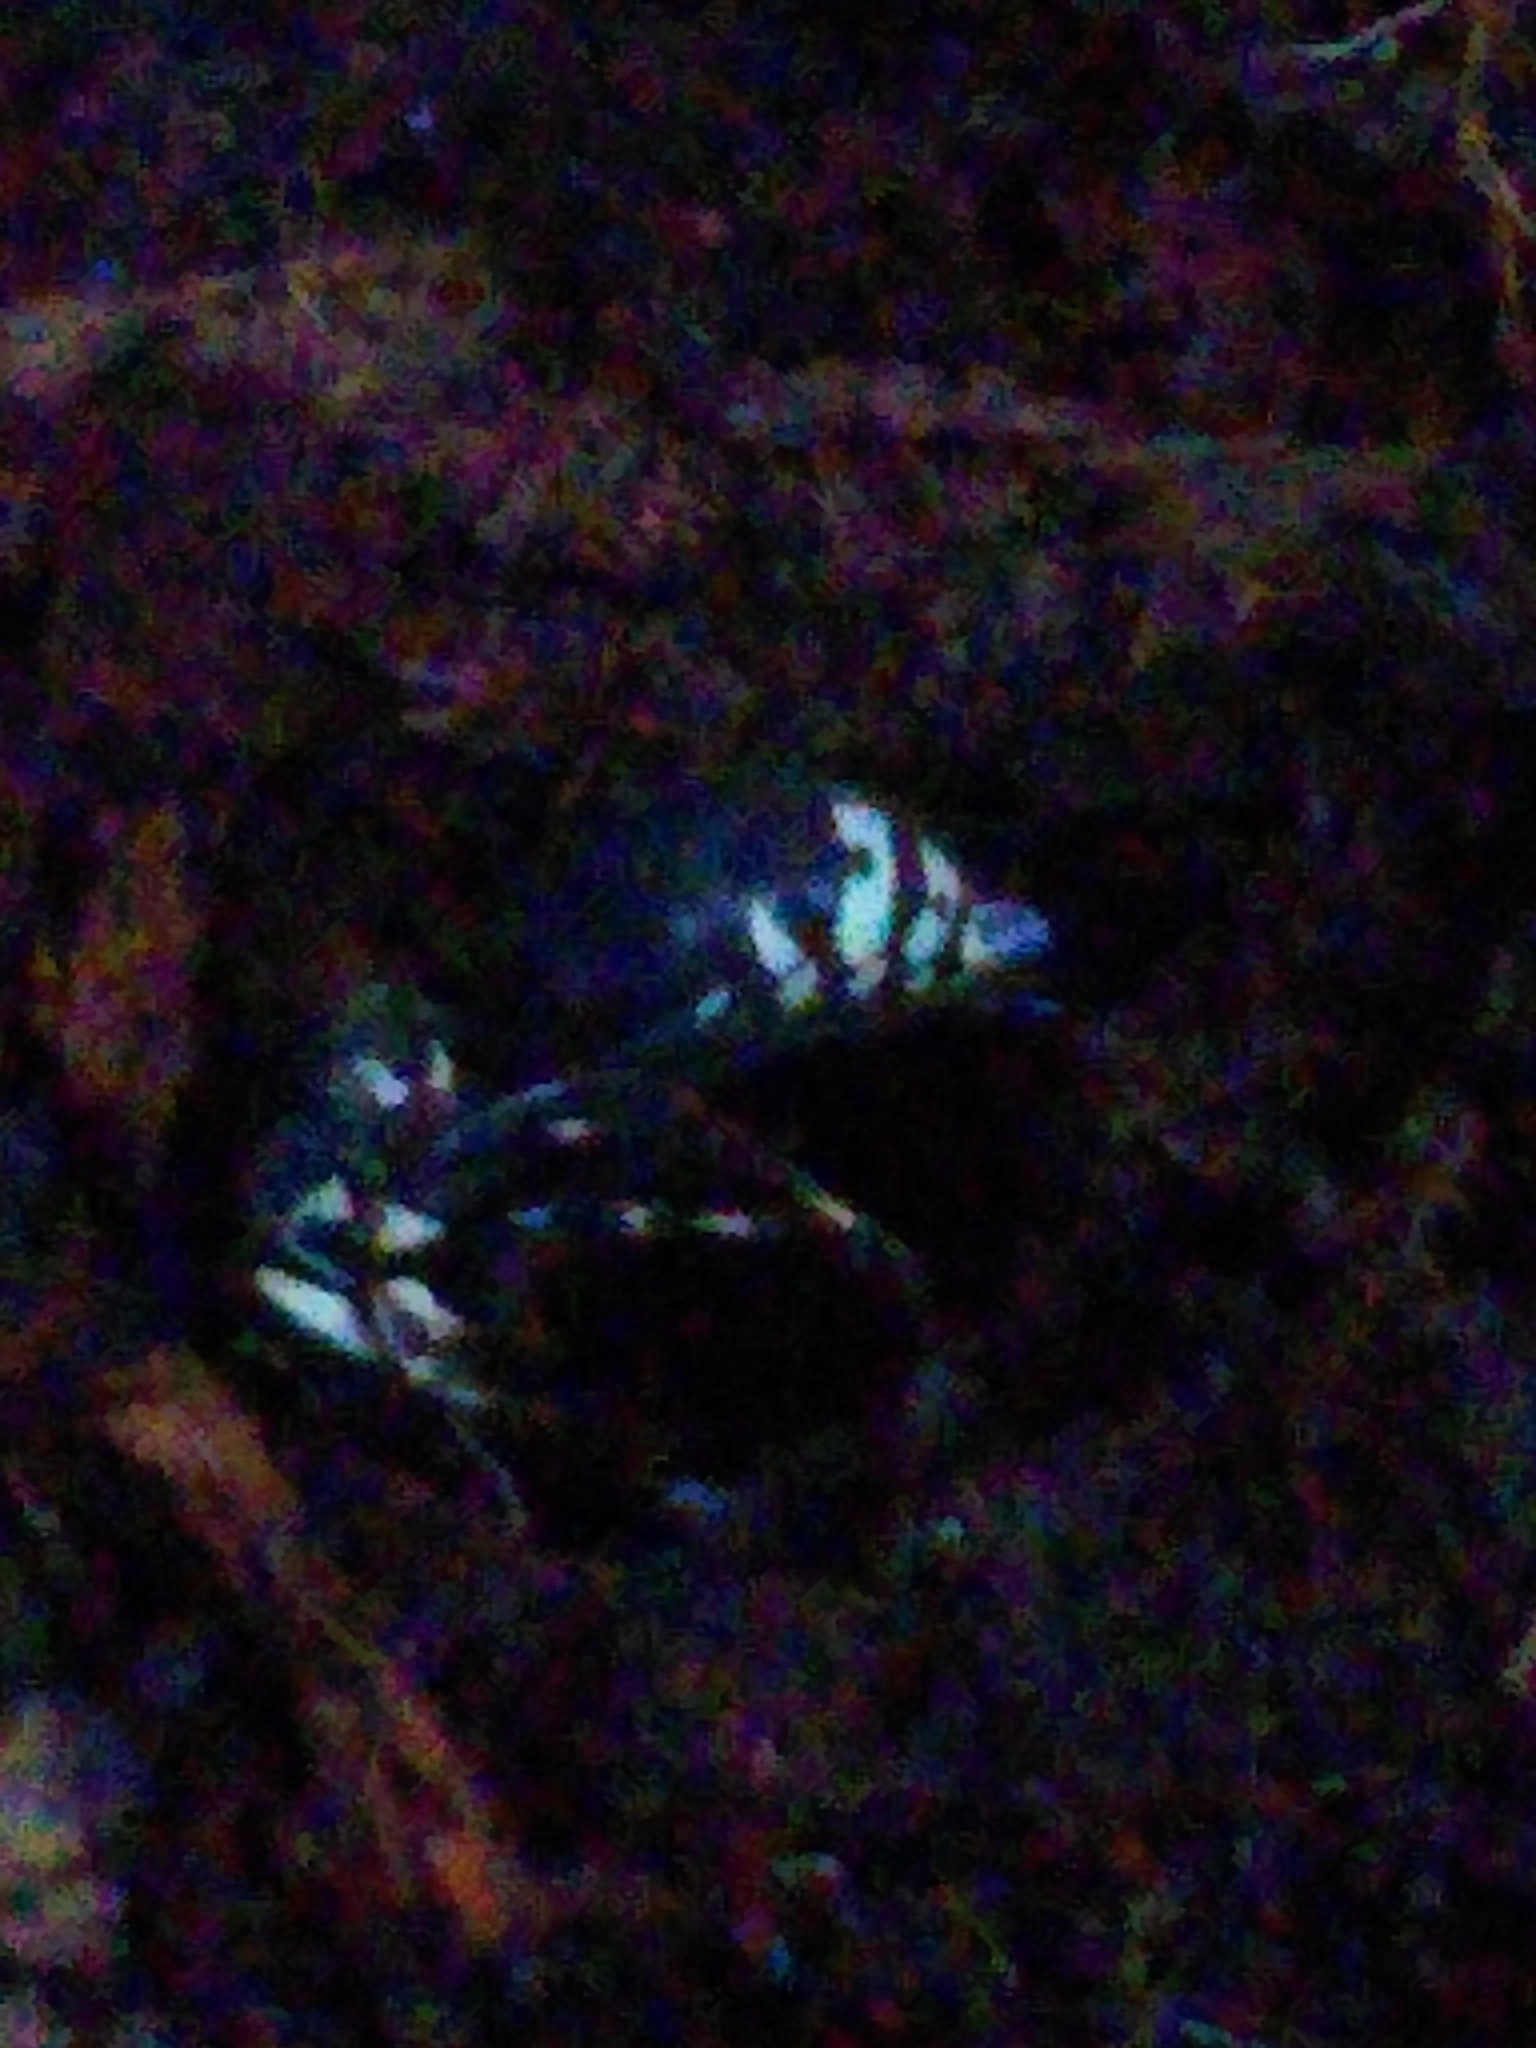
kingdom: Animalia
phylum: Arthropoda
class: Insecta
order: Hymenoptera
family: Vespidae
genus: Dolichovespula
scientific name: Dolichovespula maculata
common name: Bald-faced hornet
